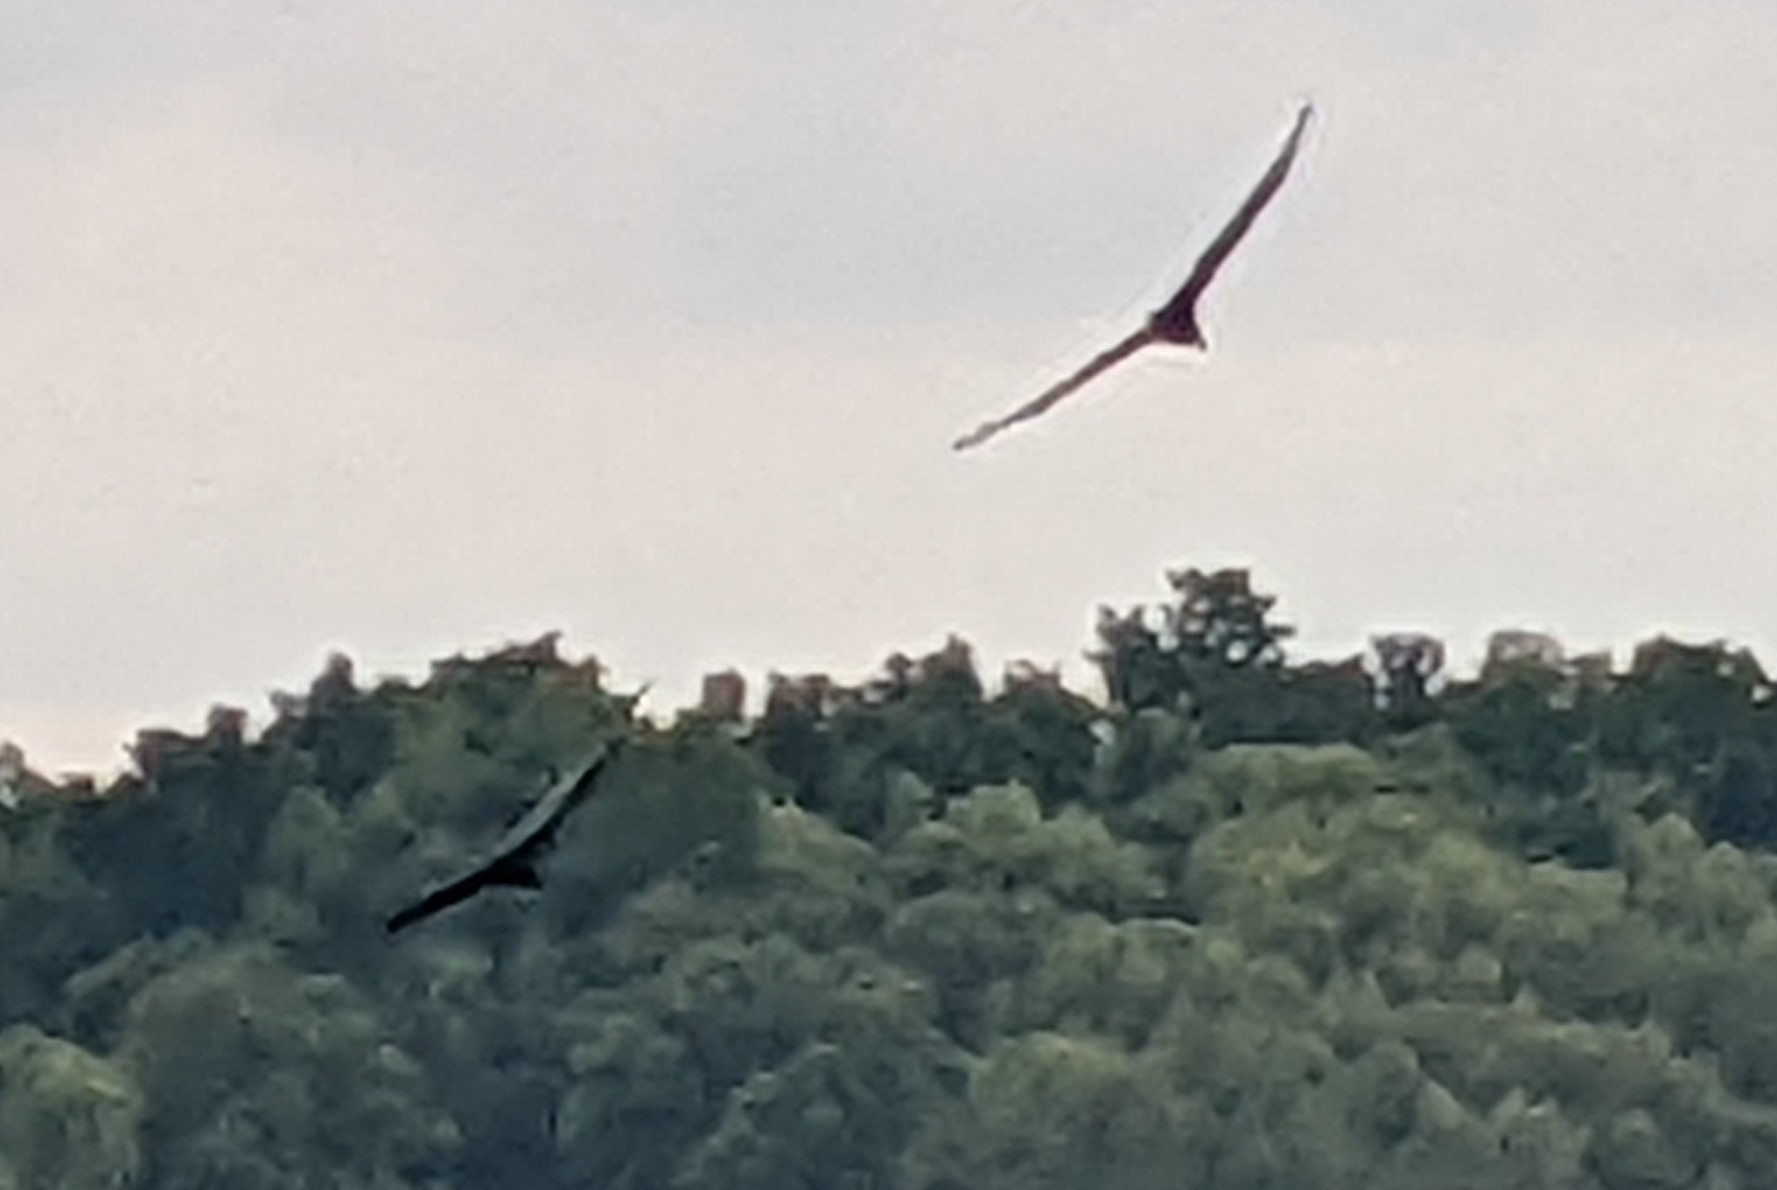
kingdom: Animalia
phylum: Chordata
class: Aves
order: Accipitriformes
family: Cathartidae
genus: Cathartes
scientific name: Cathartes aura
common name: Turkey vulture
